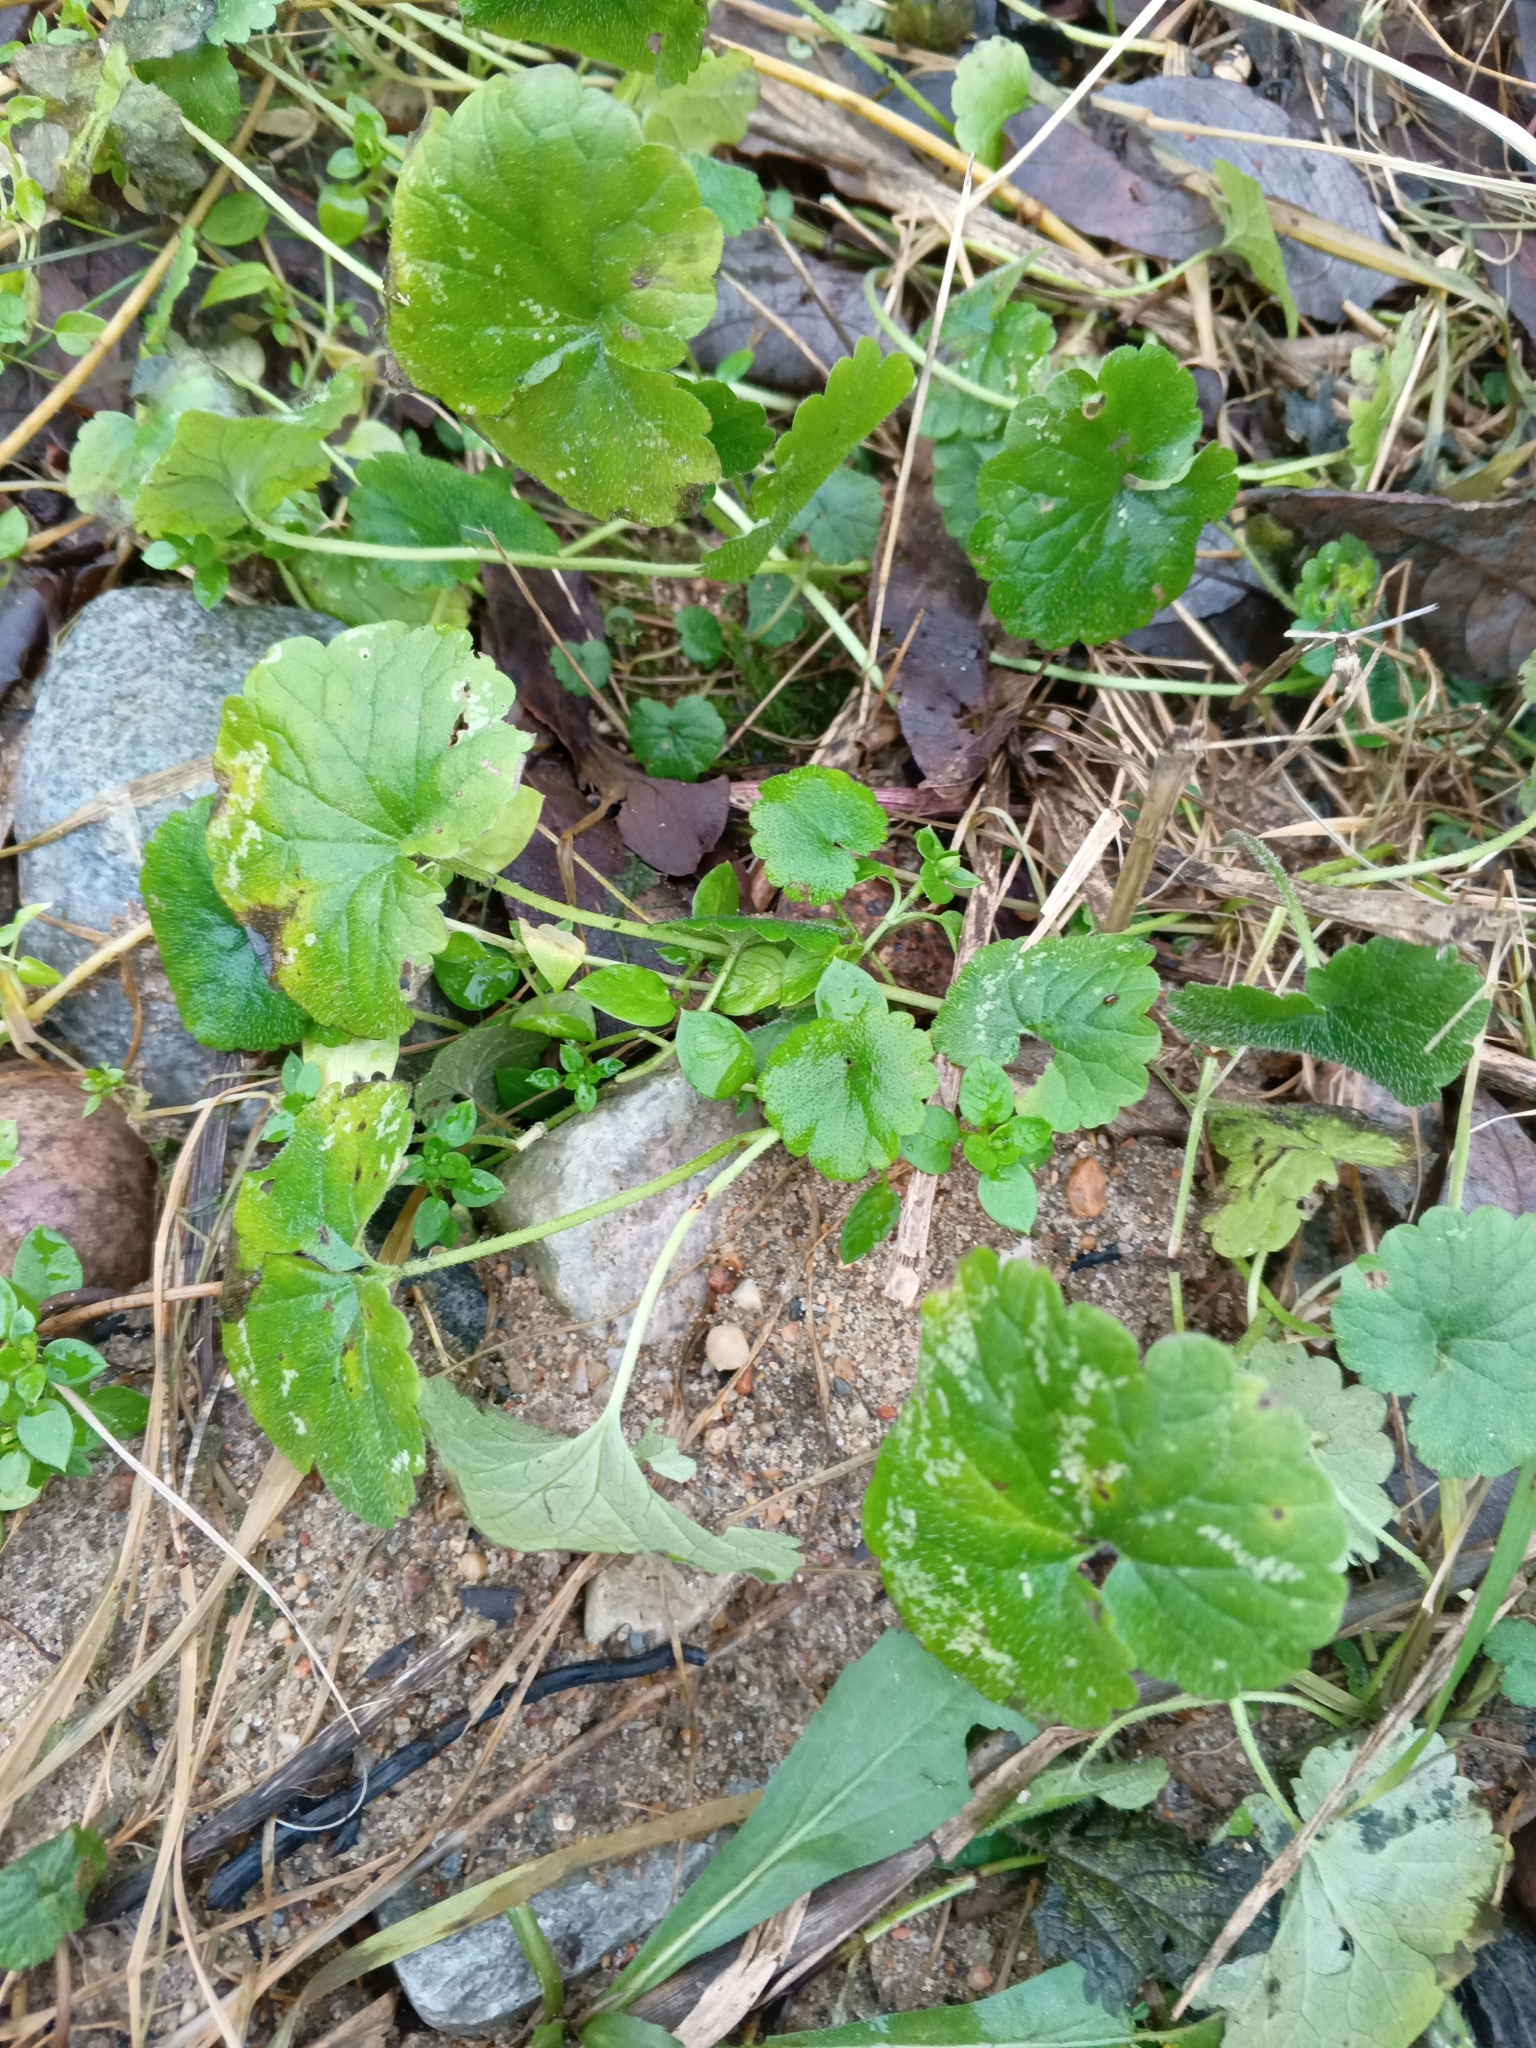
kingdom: Plantae
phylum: Tracheophyta
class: Magnoliopsida
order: Lamiales
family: Lamiaceae
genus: Glechoma
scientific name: Glechoma hederacea
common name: Ground ivy
